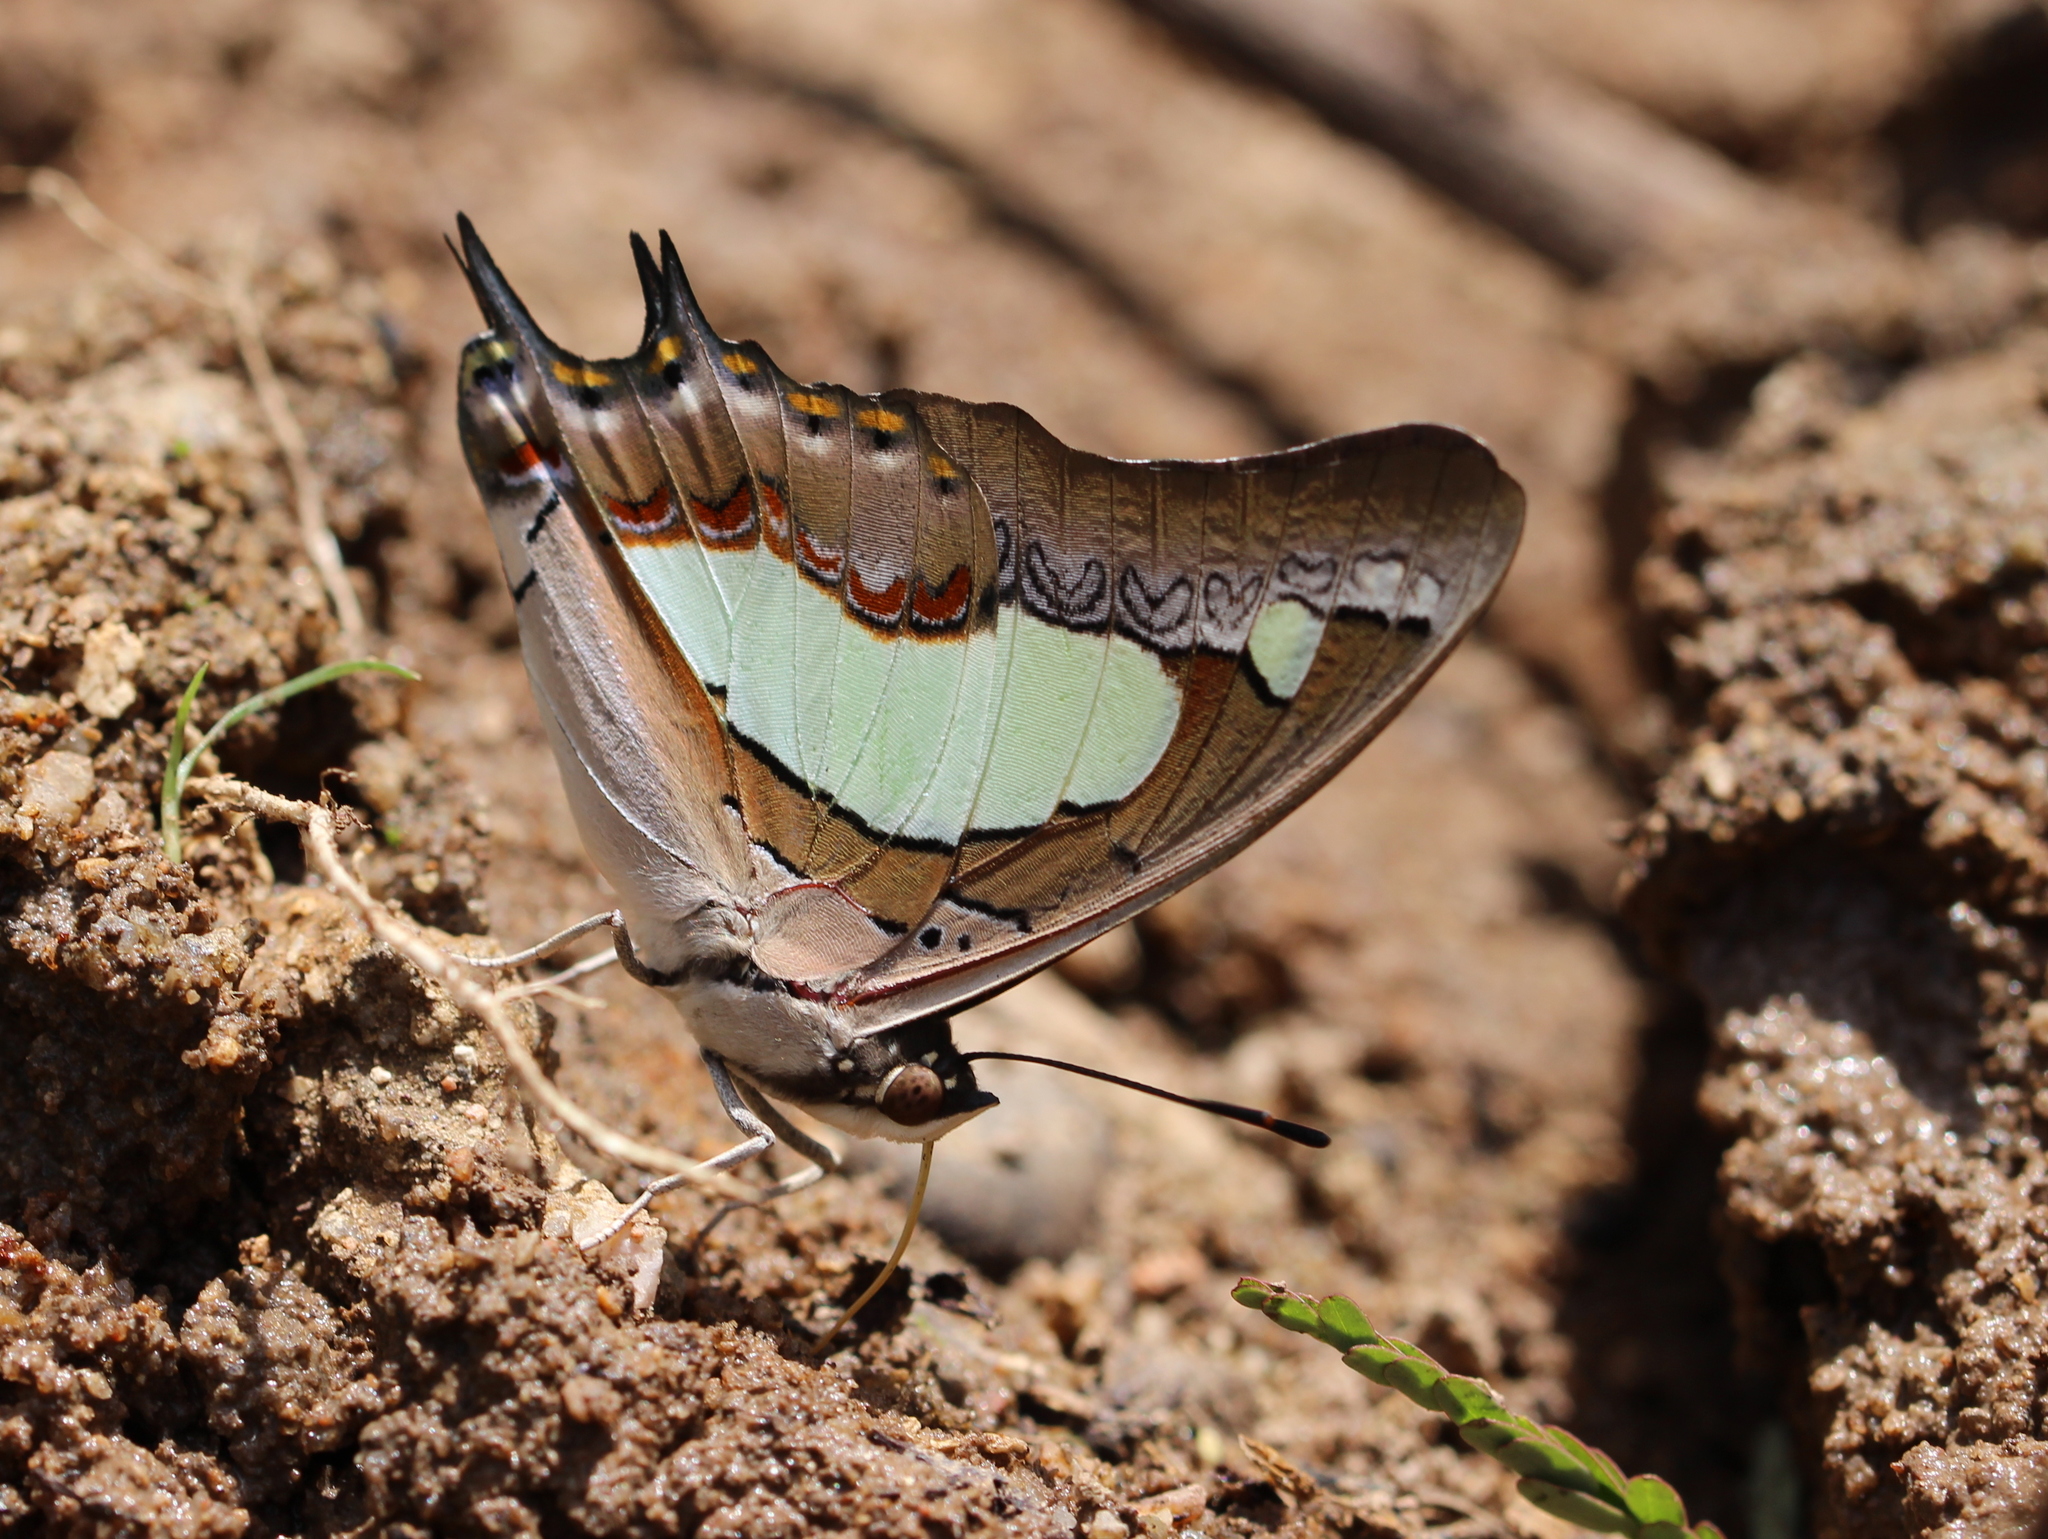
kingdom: Animalia
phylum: Arthropoda
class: Insecta
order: Lepidoptera
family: Nymphalidae
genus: Polyura
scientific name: Polyura agrarius
